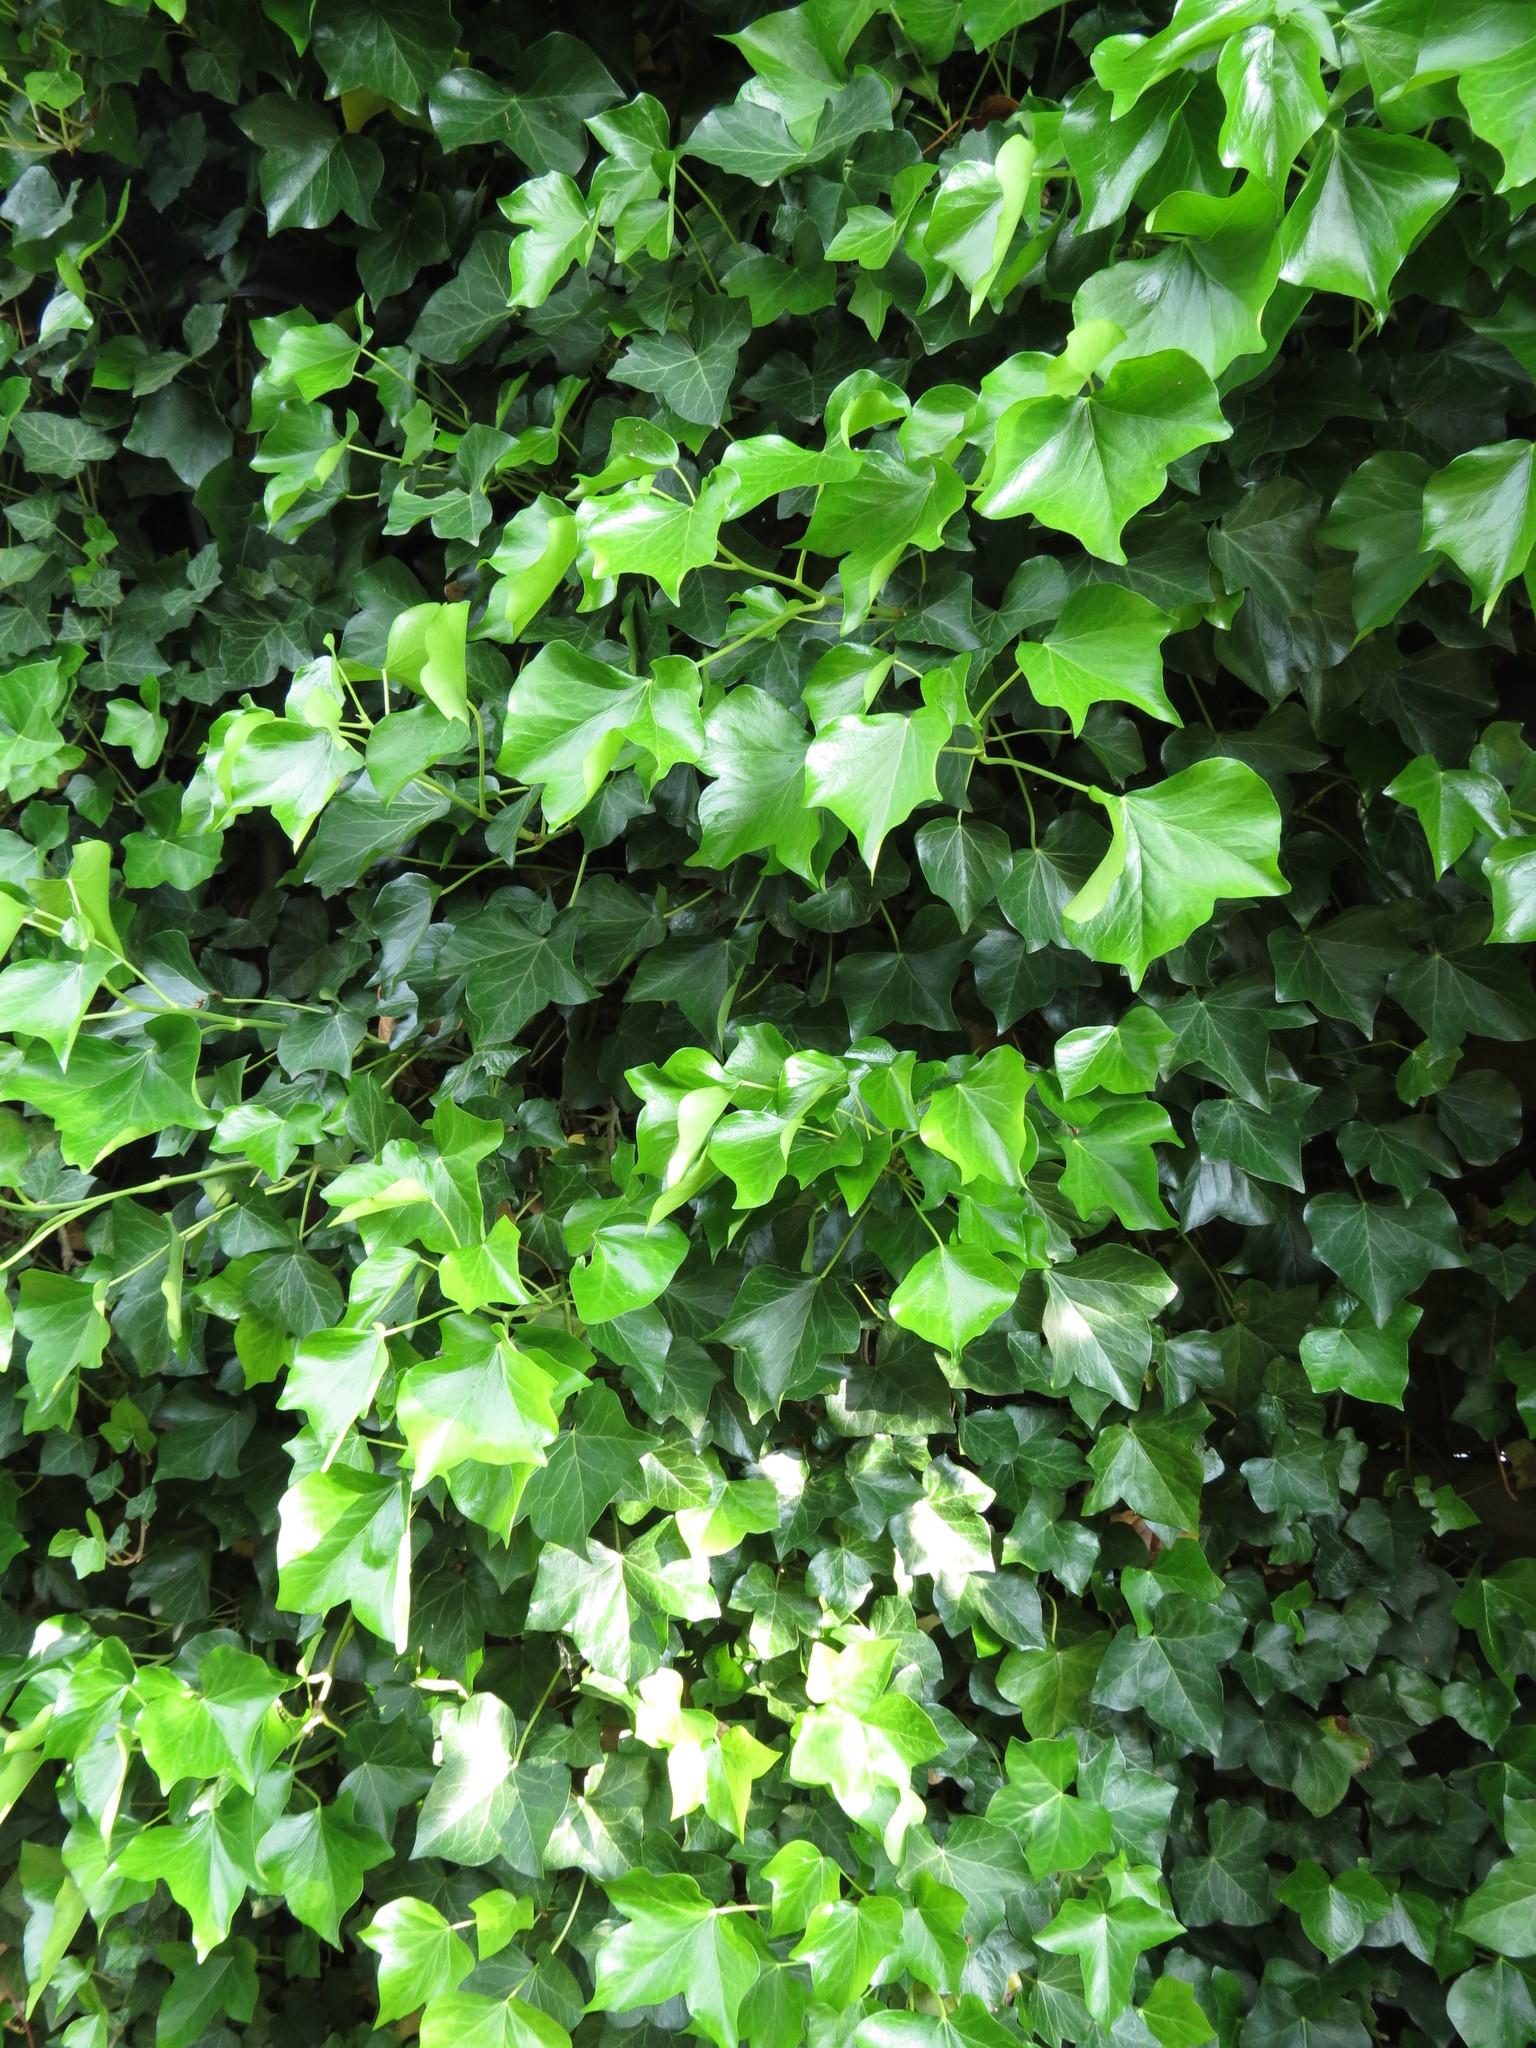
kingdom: Plantae
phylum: Tracheophyta
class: Magnoliopsida
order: Apiales
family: Araliaceae
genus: Hedera
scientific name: Hedera helix
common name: Ivy
